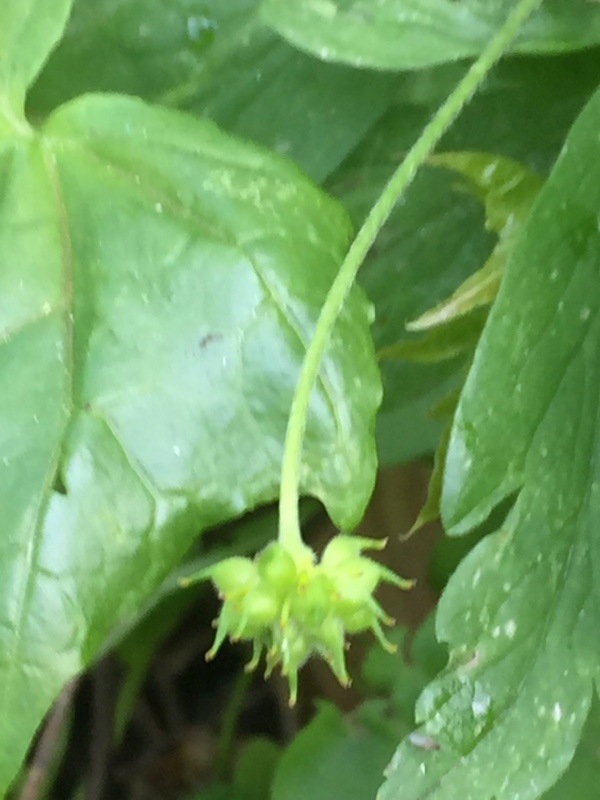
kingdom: Plantae
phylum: Tracheophyta
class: Magnoliopsida
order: Ranunculales
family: Ranunculaceae
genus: Anemone
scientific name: Anemone ranunculoides
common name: Yellow anemone
